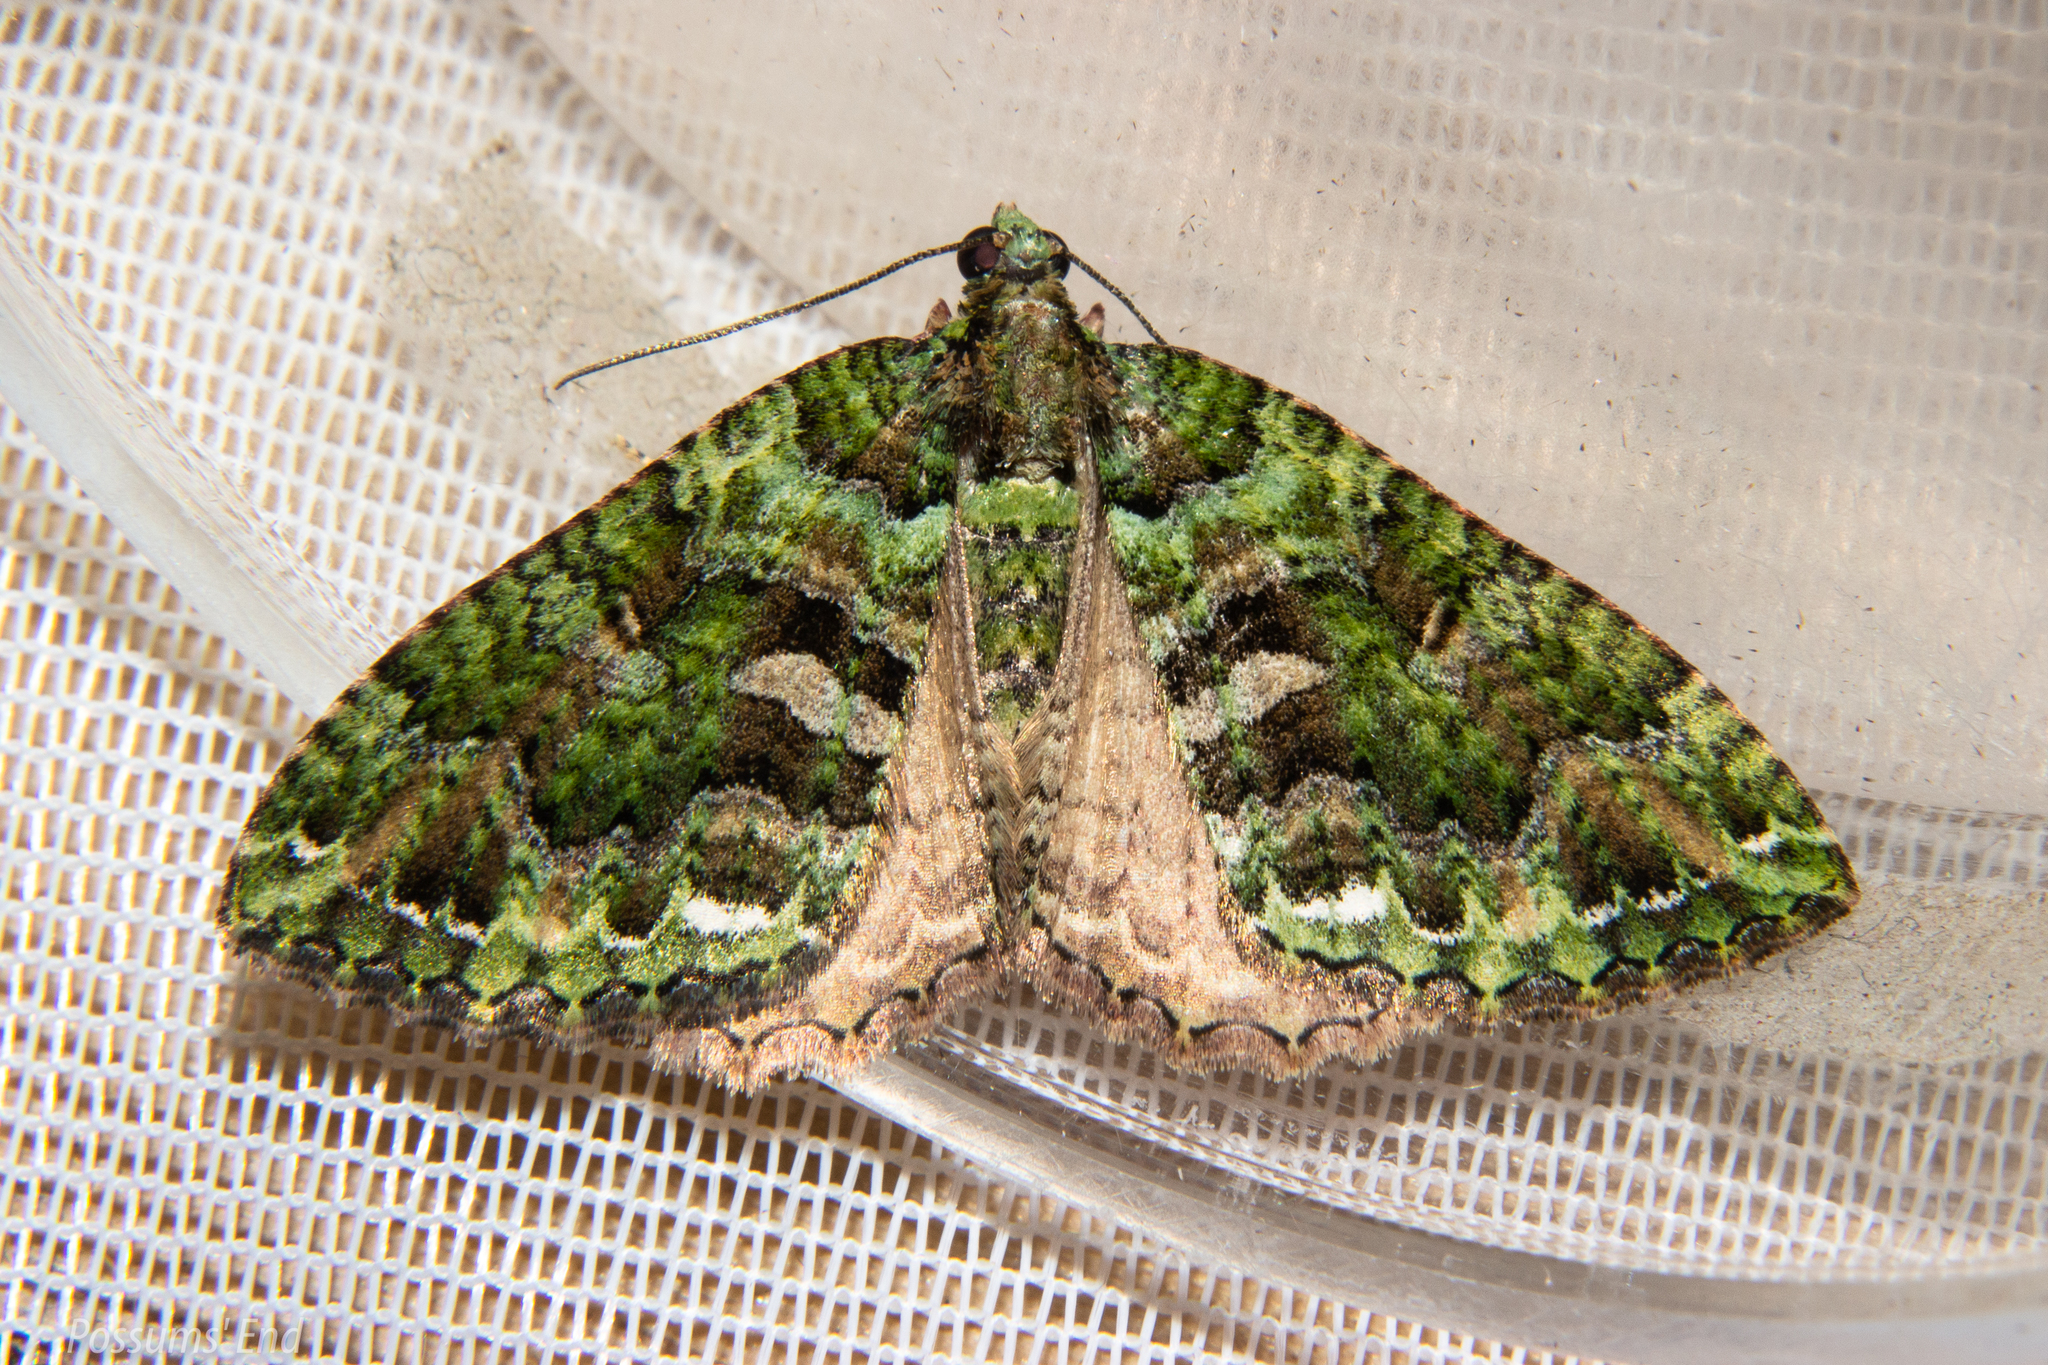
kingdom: Animalia
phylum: Arthropoda
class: Insecta
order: Lepidoptera
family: Geometridae
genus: Austrocidaria
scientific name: Austrocidaria similata
